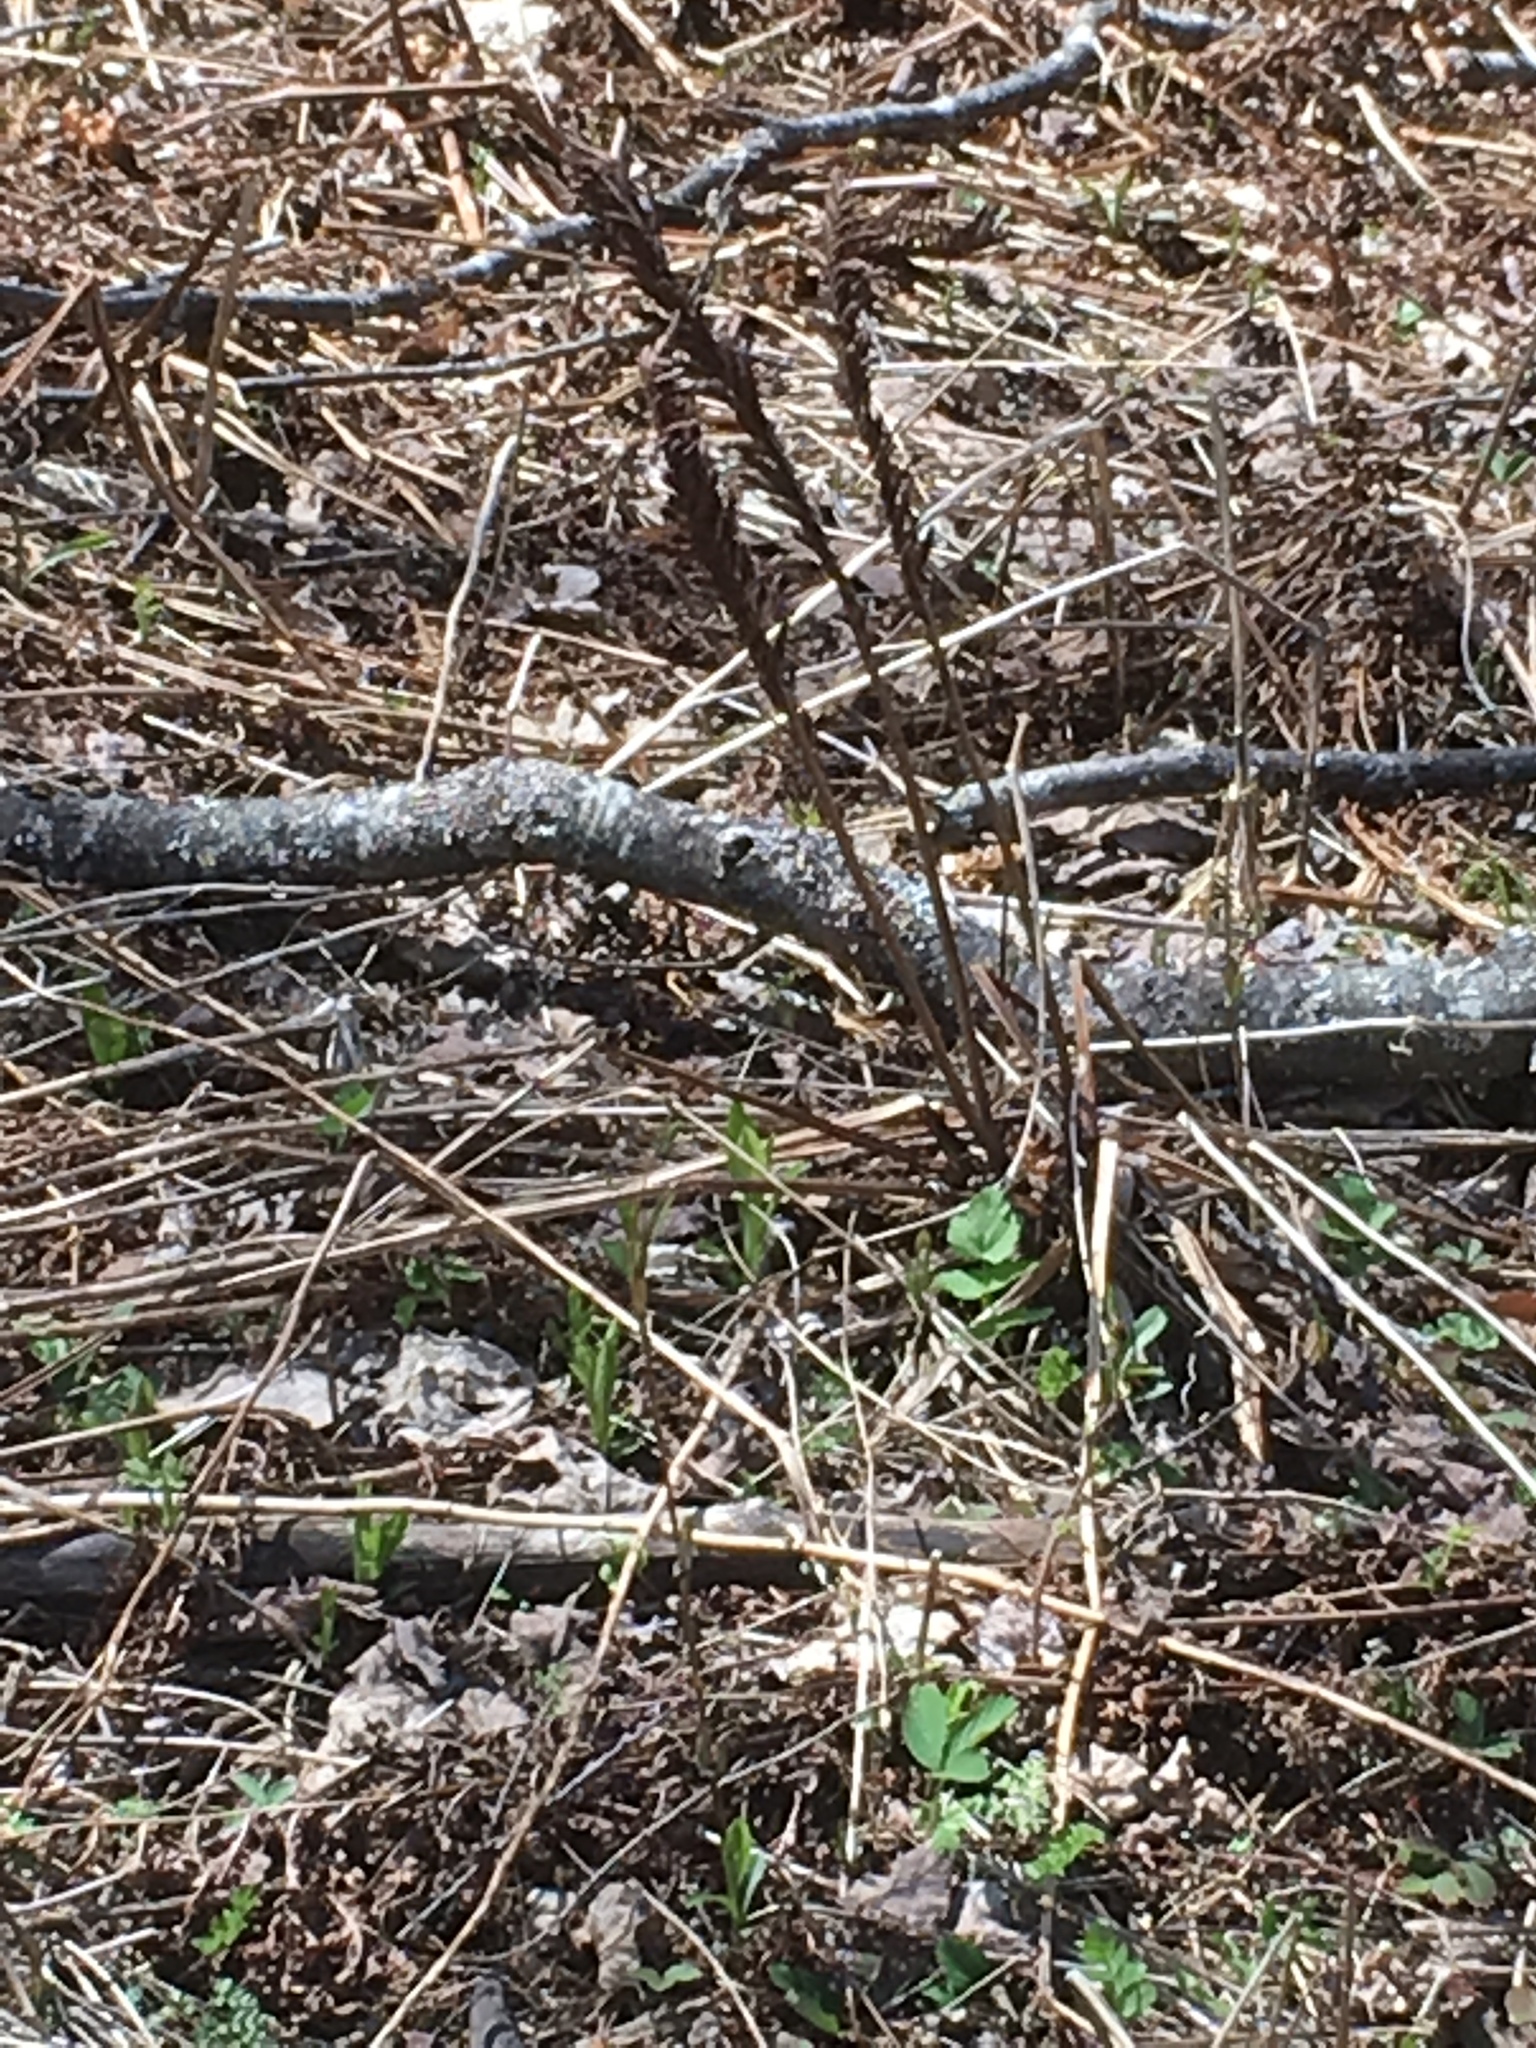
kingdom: Plantae
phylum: Tracheophyta
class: Polypodiopsida
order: Polypodiales
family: Onocleaceae
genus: Matteuccia
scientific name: Matteuccia struthiopteris
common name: Ostrich fern
